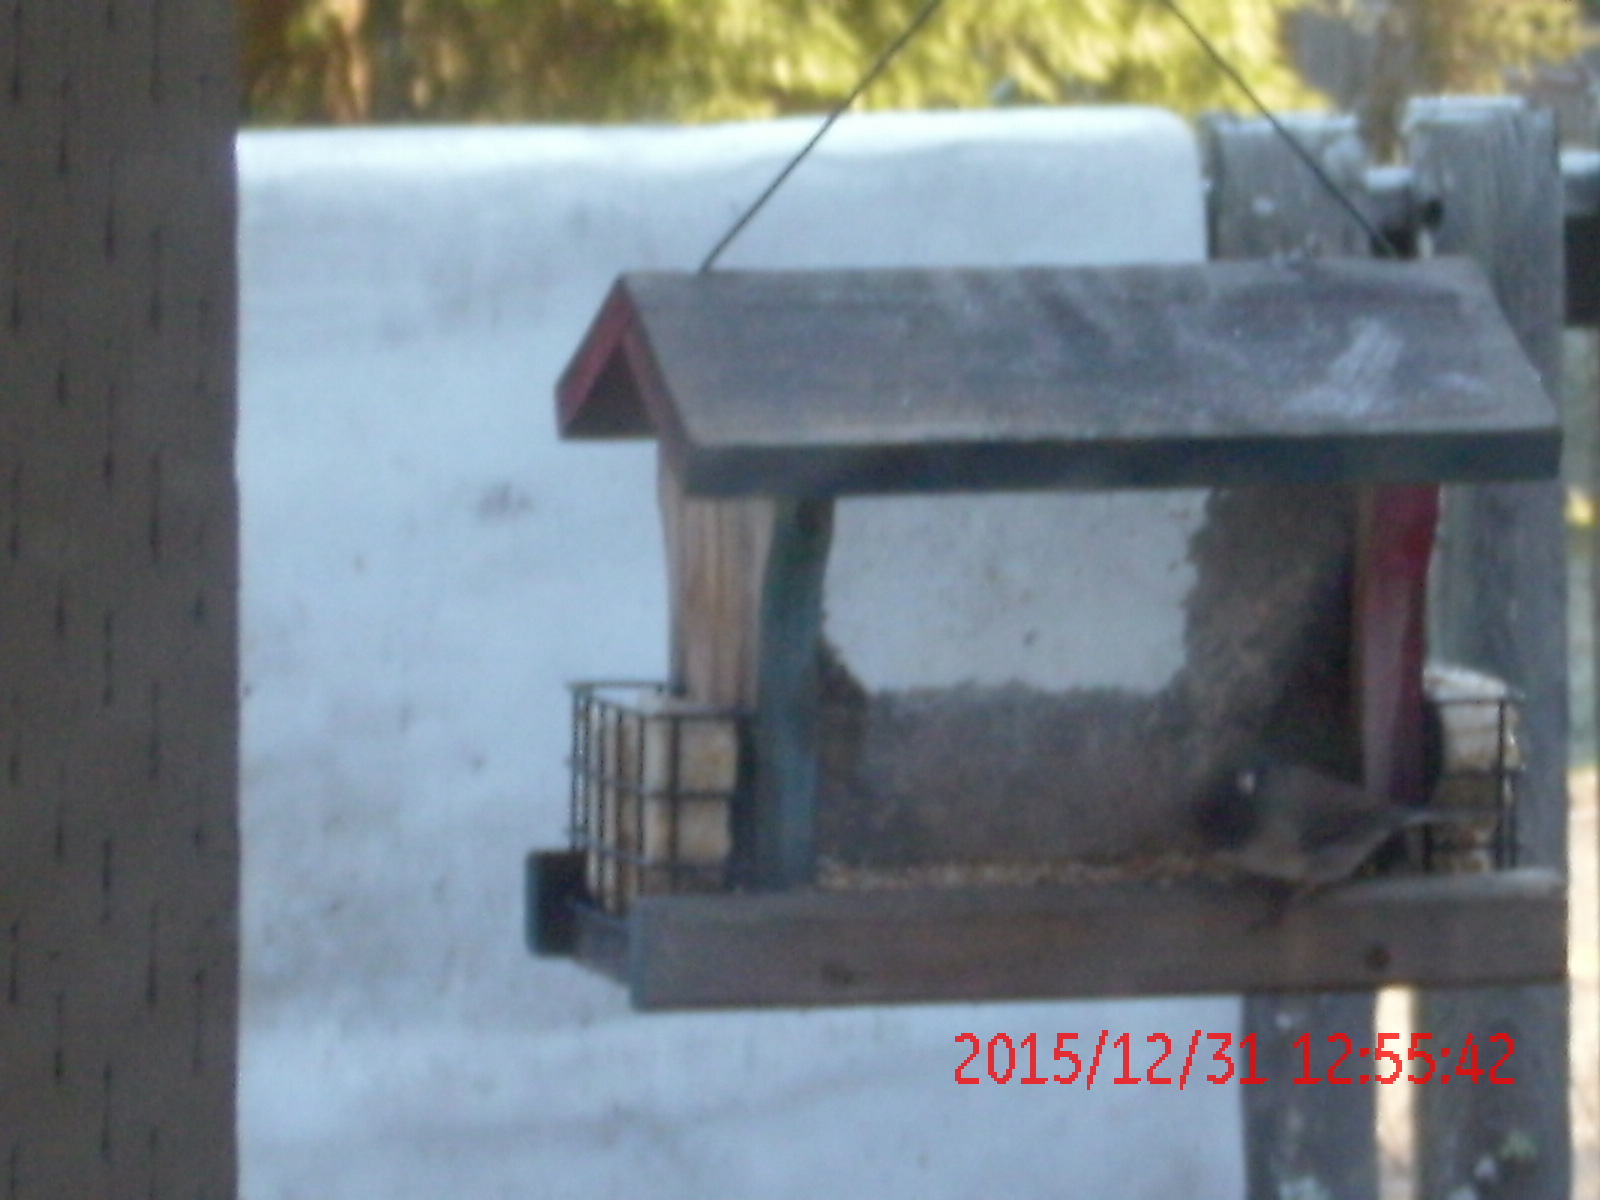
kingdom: Animalia
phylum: Chordata
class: Aves
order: Passeriformes
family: Passerellidae
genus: Junco
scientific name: Junco hyemalis
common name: Dark-eyed junco
